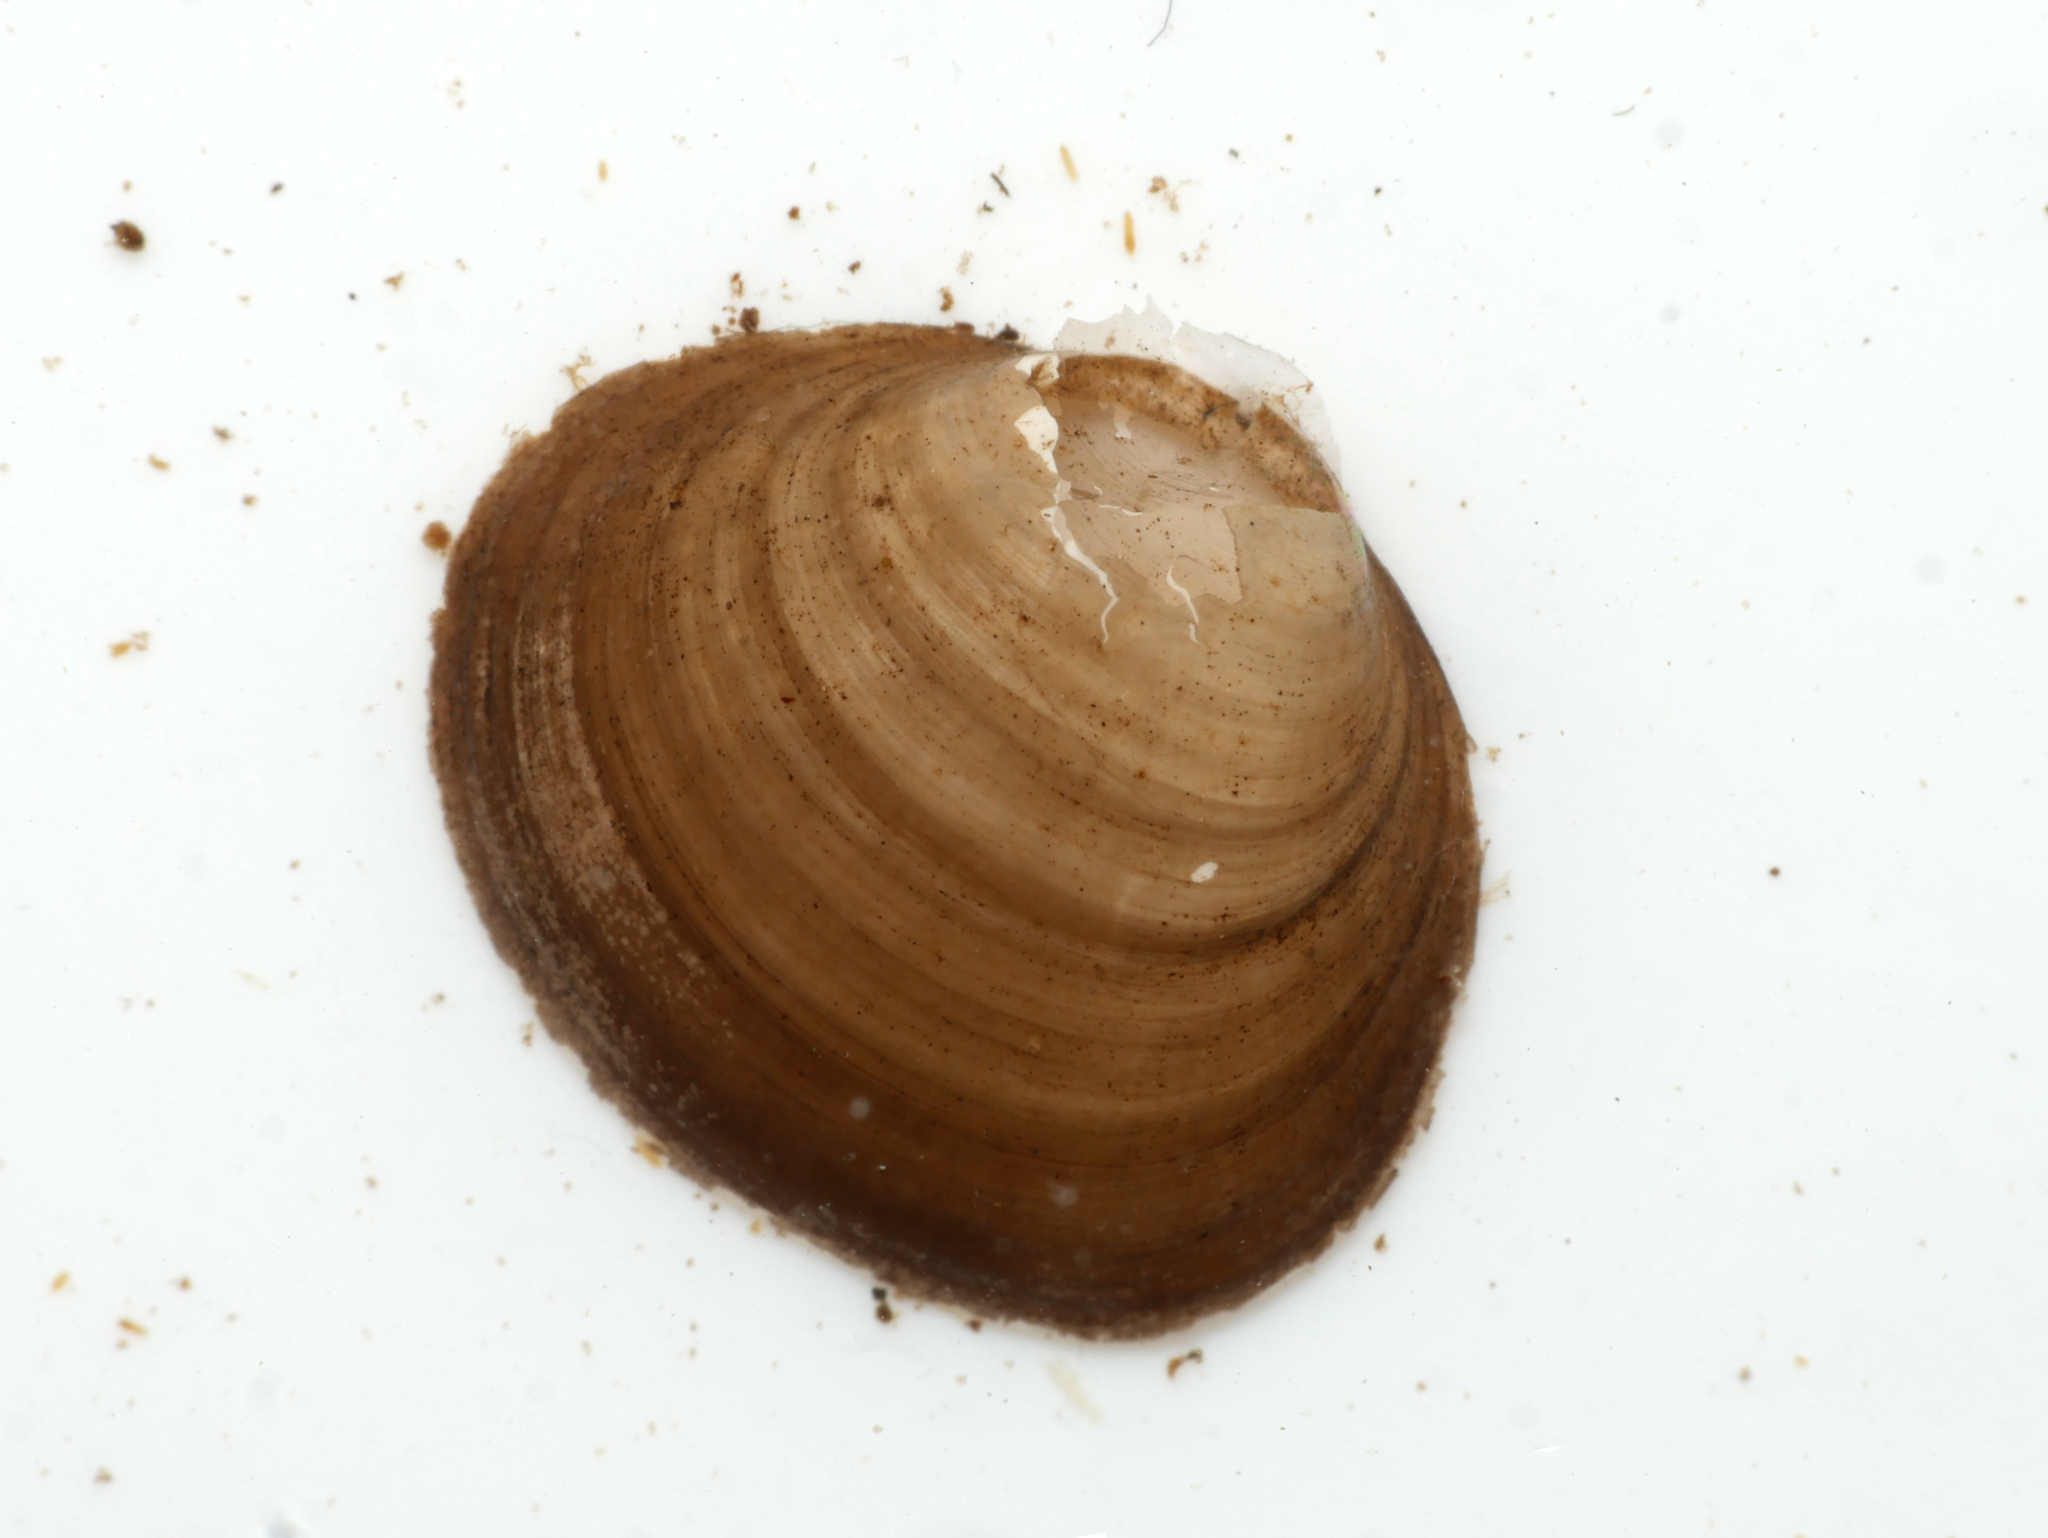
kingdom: Animalia
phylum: Mollusca
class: Bivalvia
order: Sphaeriida
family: Sphaeriidae
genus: Sphaerium
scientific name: Sphaerium corneum
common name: Horny orb mussel
